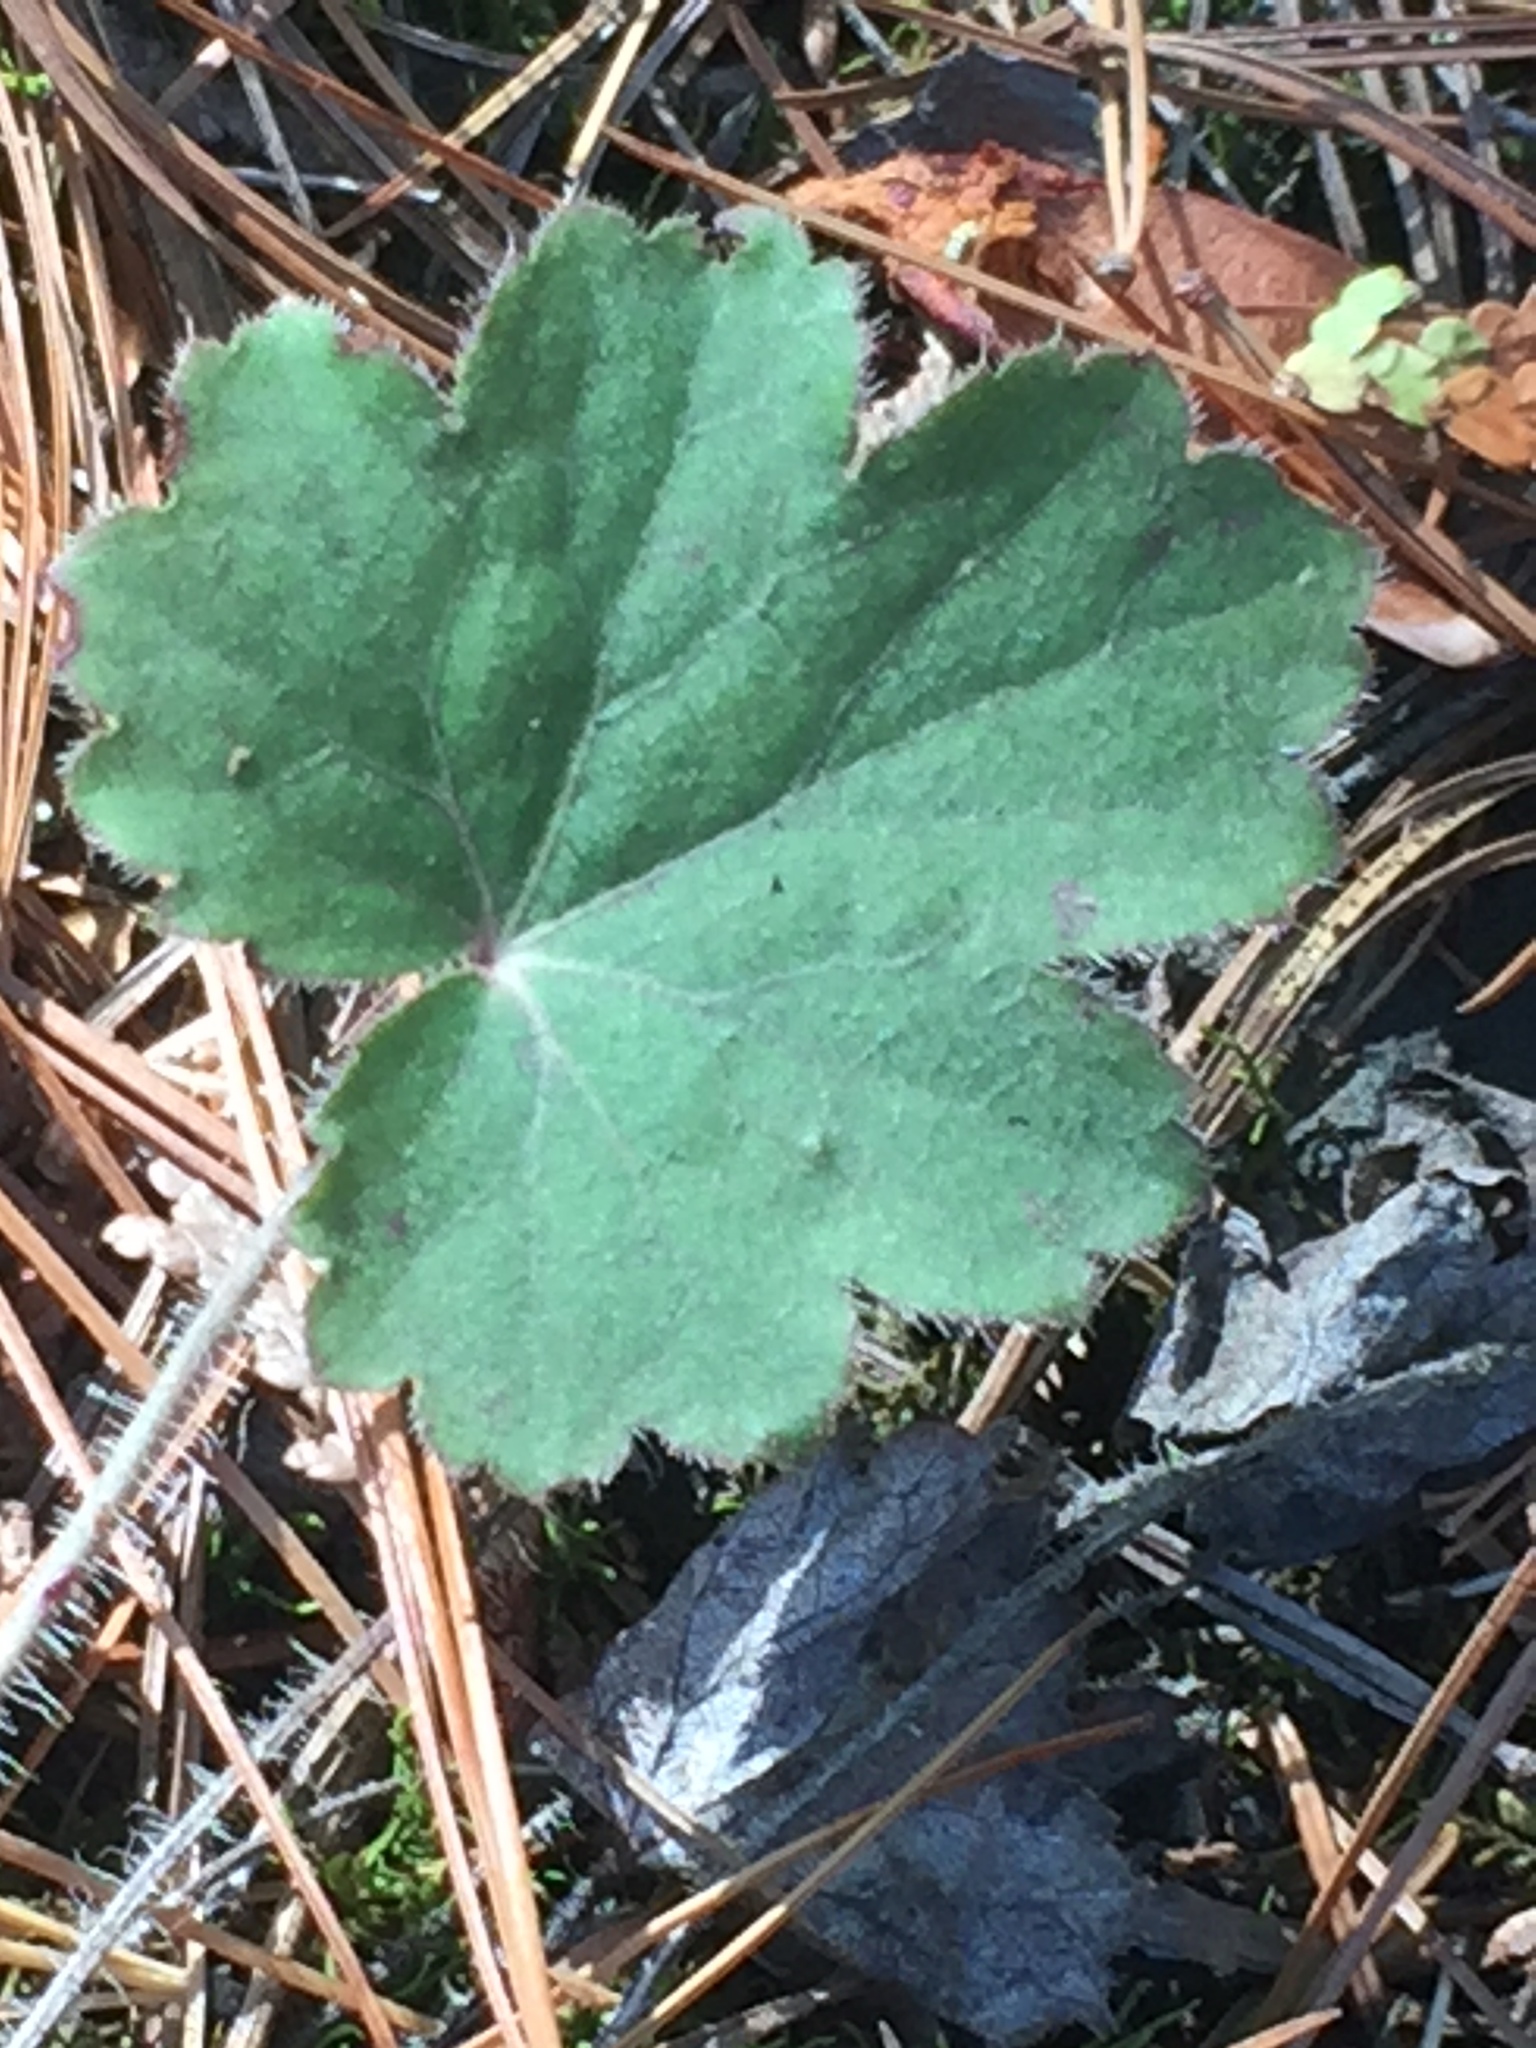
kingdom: Plantae
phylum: Tracheophyta
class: Magnoliopsida
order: Saxifragales
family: Saxifragaceae
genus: Heuchera
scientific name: Heuchera richardsonii
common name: Richardson's alumroot
